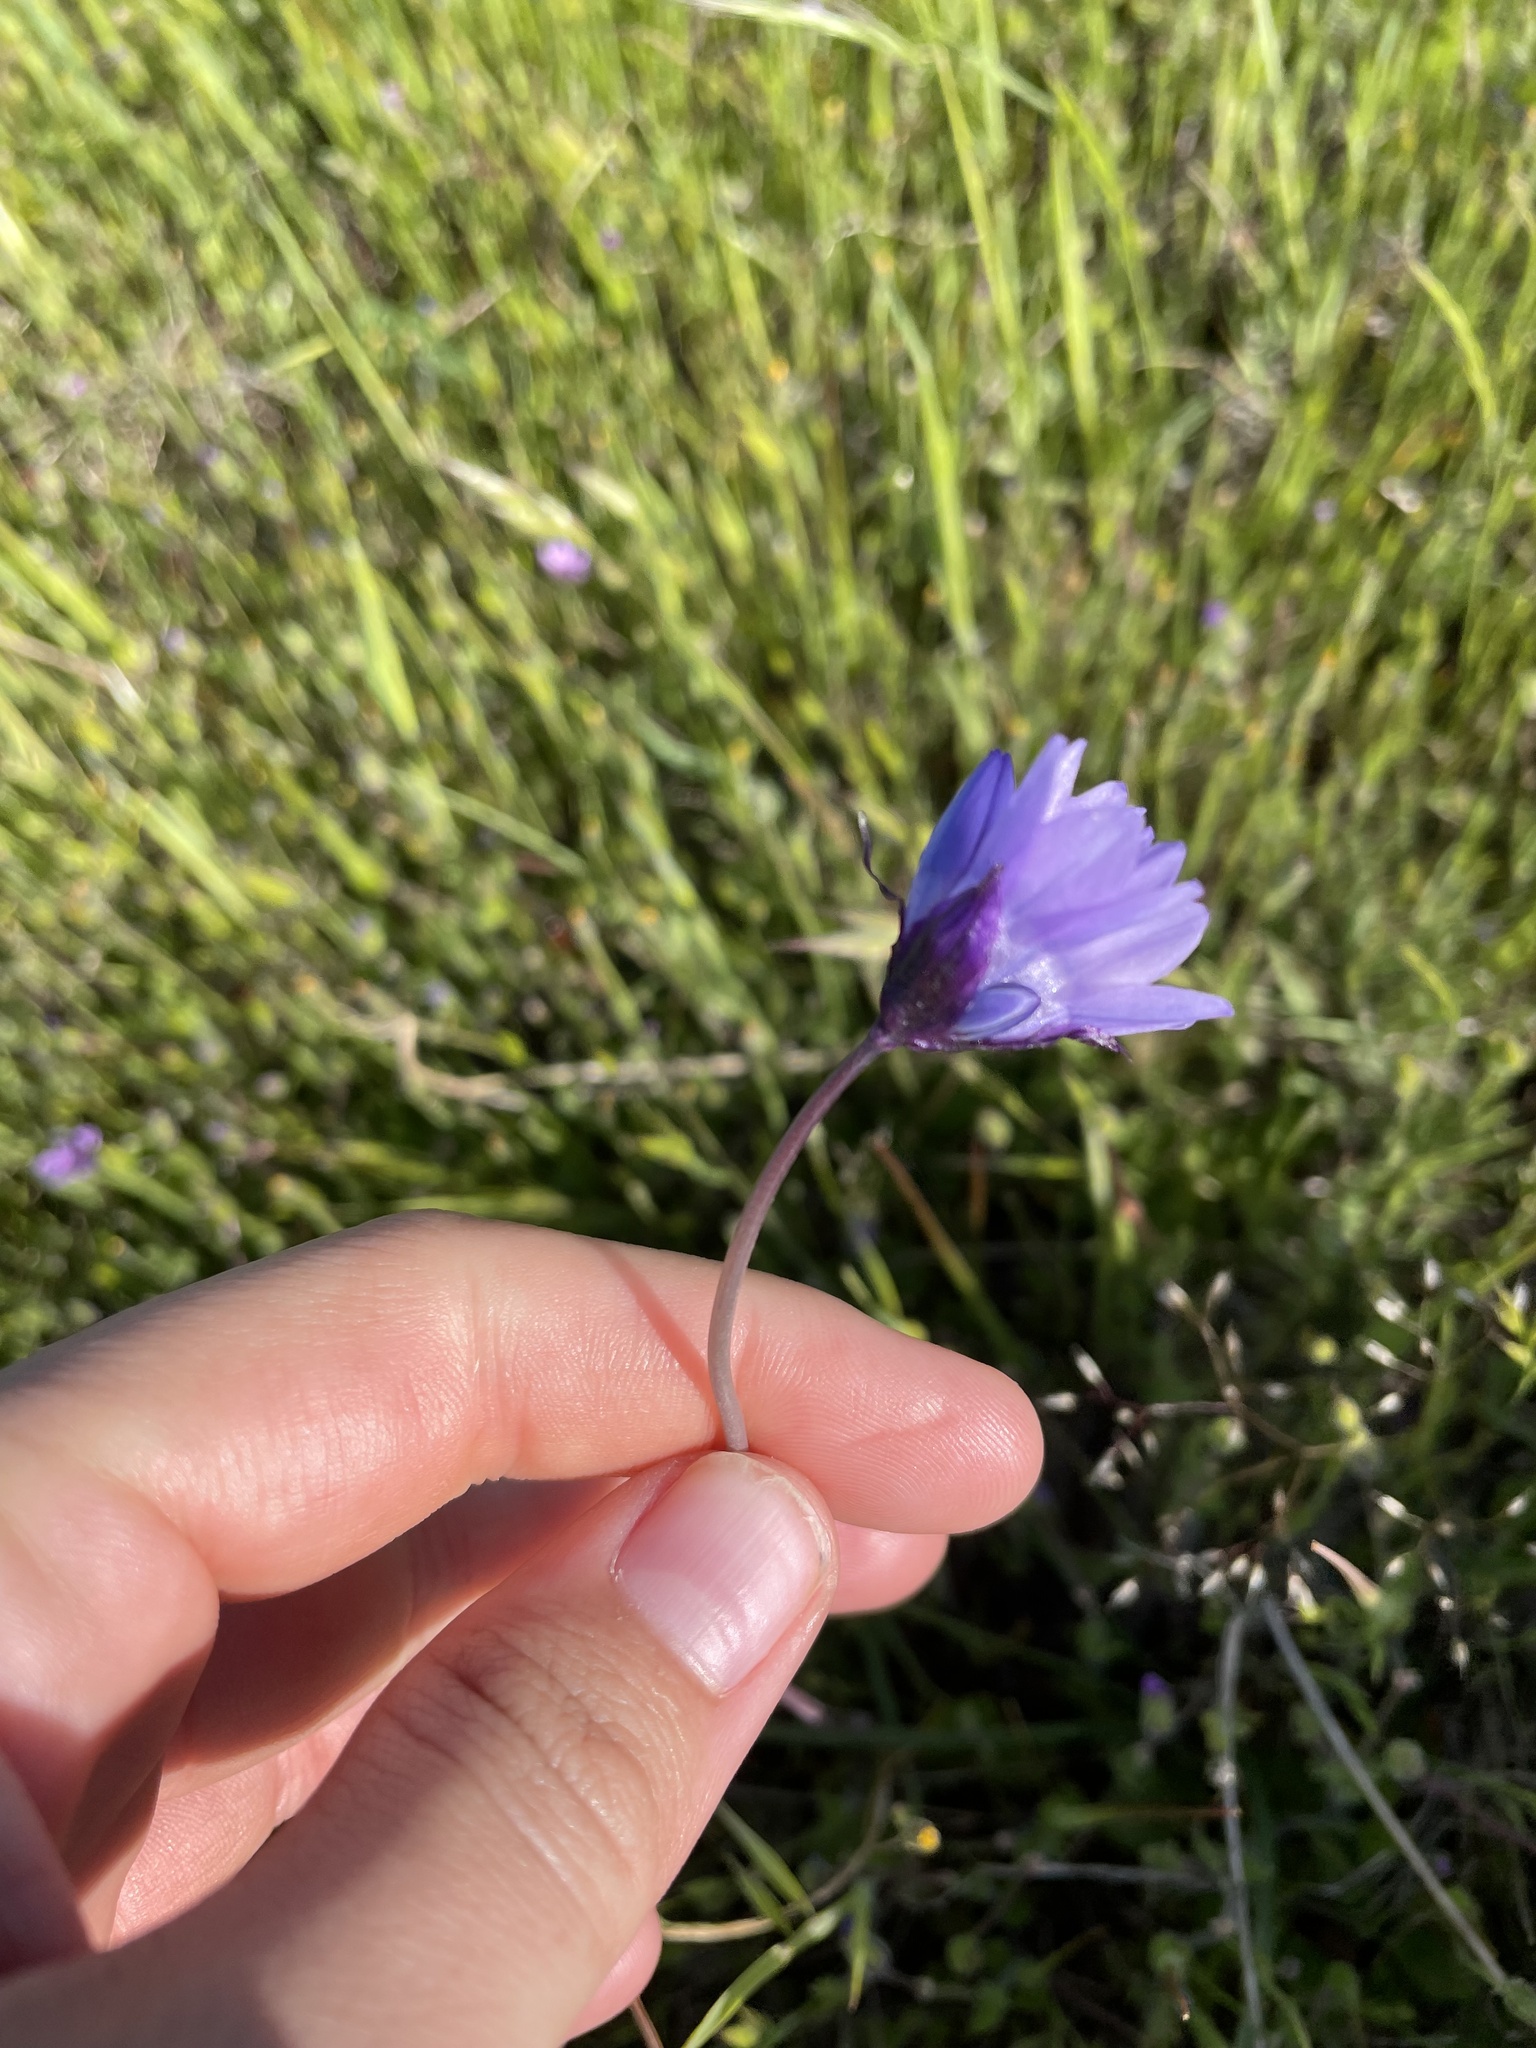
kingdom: Plantae
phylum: Tracheophyta
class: Liliopsida
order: Asparagales
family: Asparagaceae
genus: Dipterostemon
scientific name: Dipterostemon capitatus
